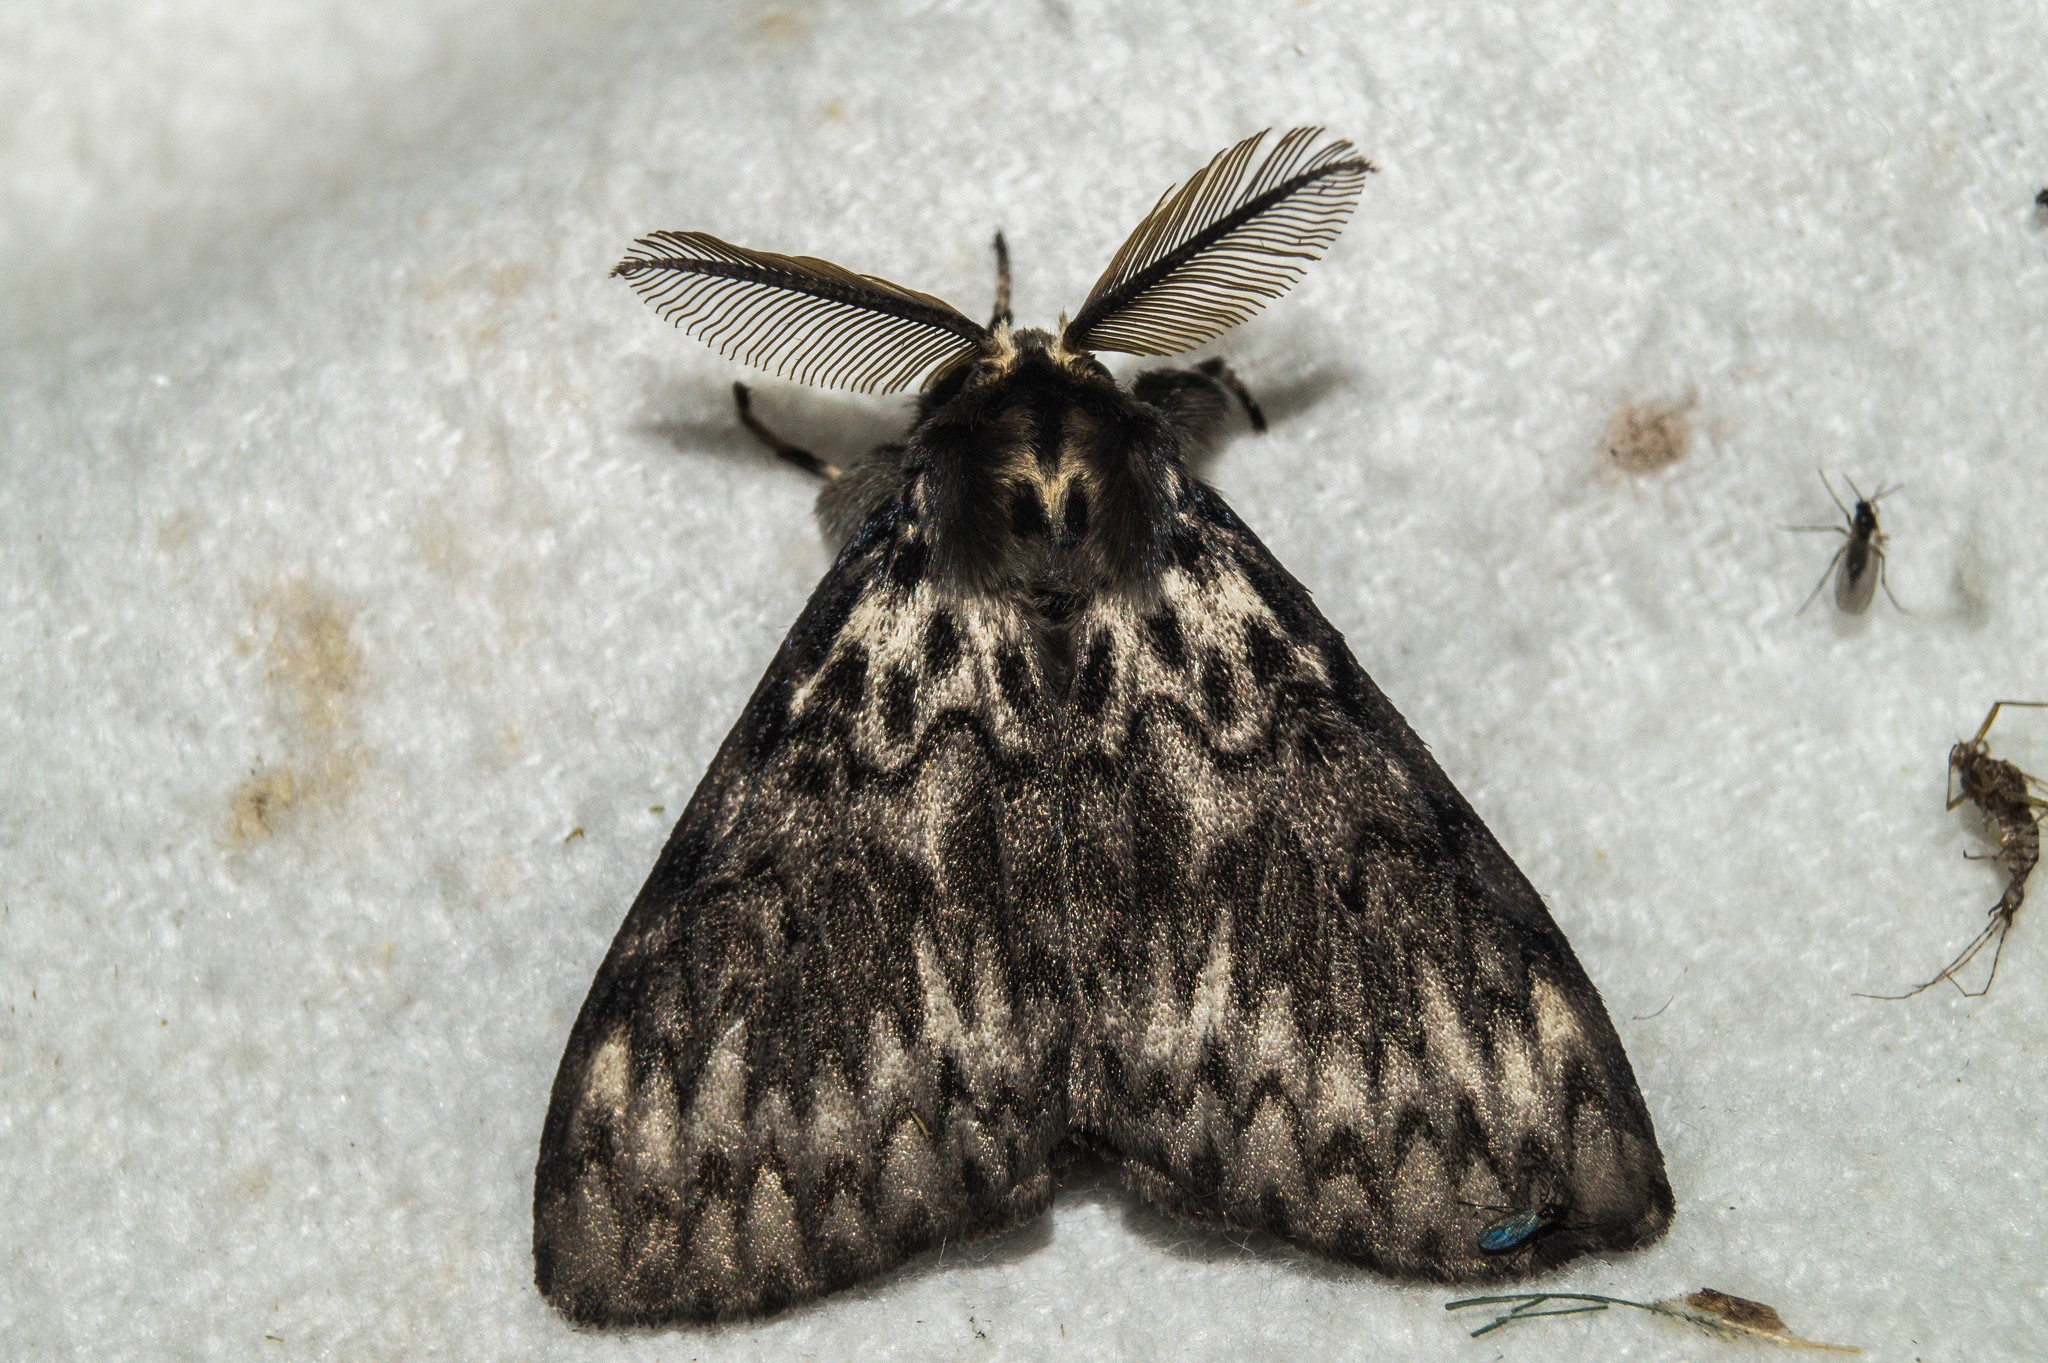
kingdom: Animalia
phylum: Arthropoda
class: Insecta
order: Lepidoptera
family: Erebidae
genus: Lymantria
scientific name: Lymantria monacha
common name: Black arches
